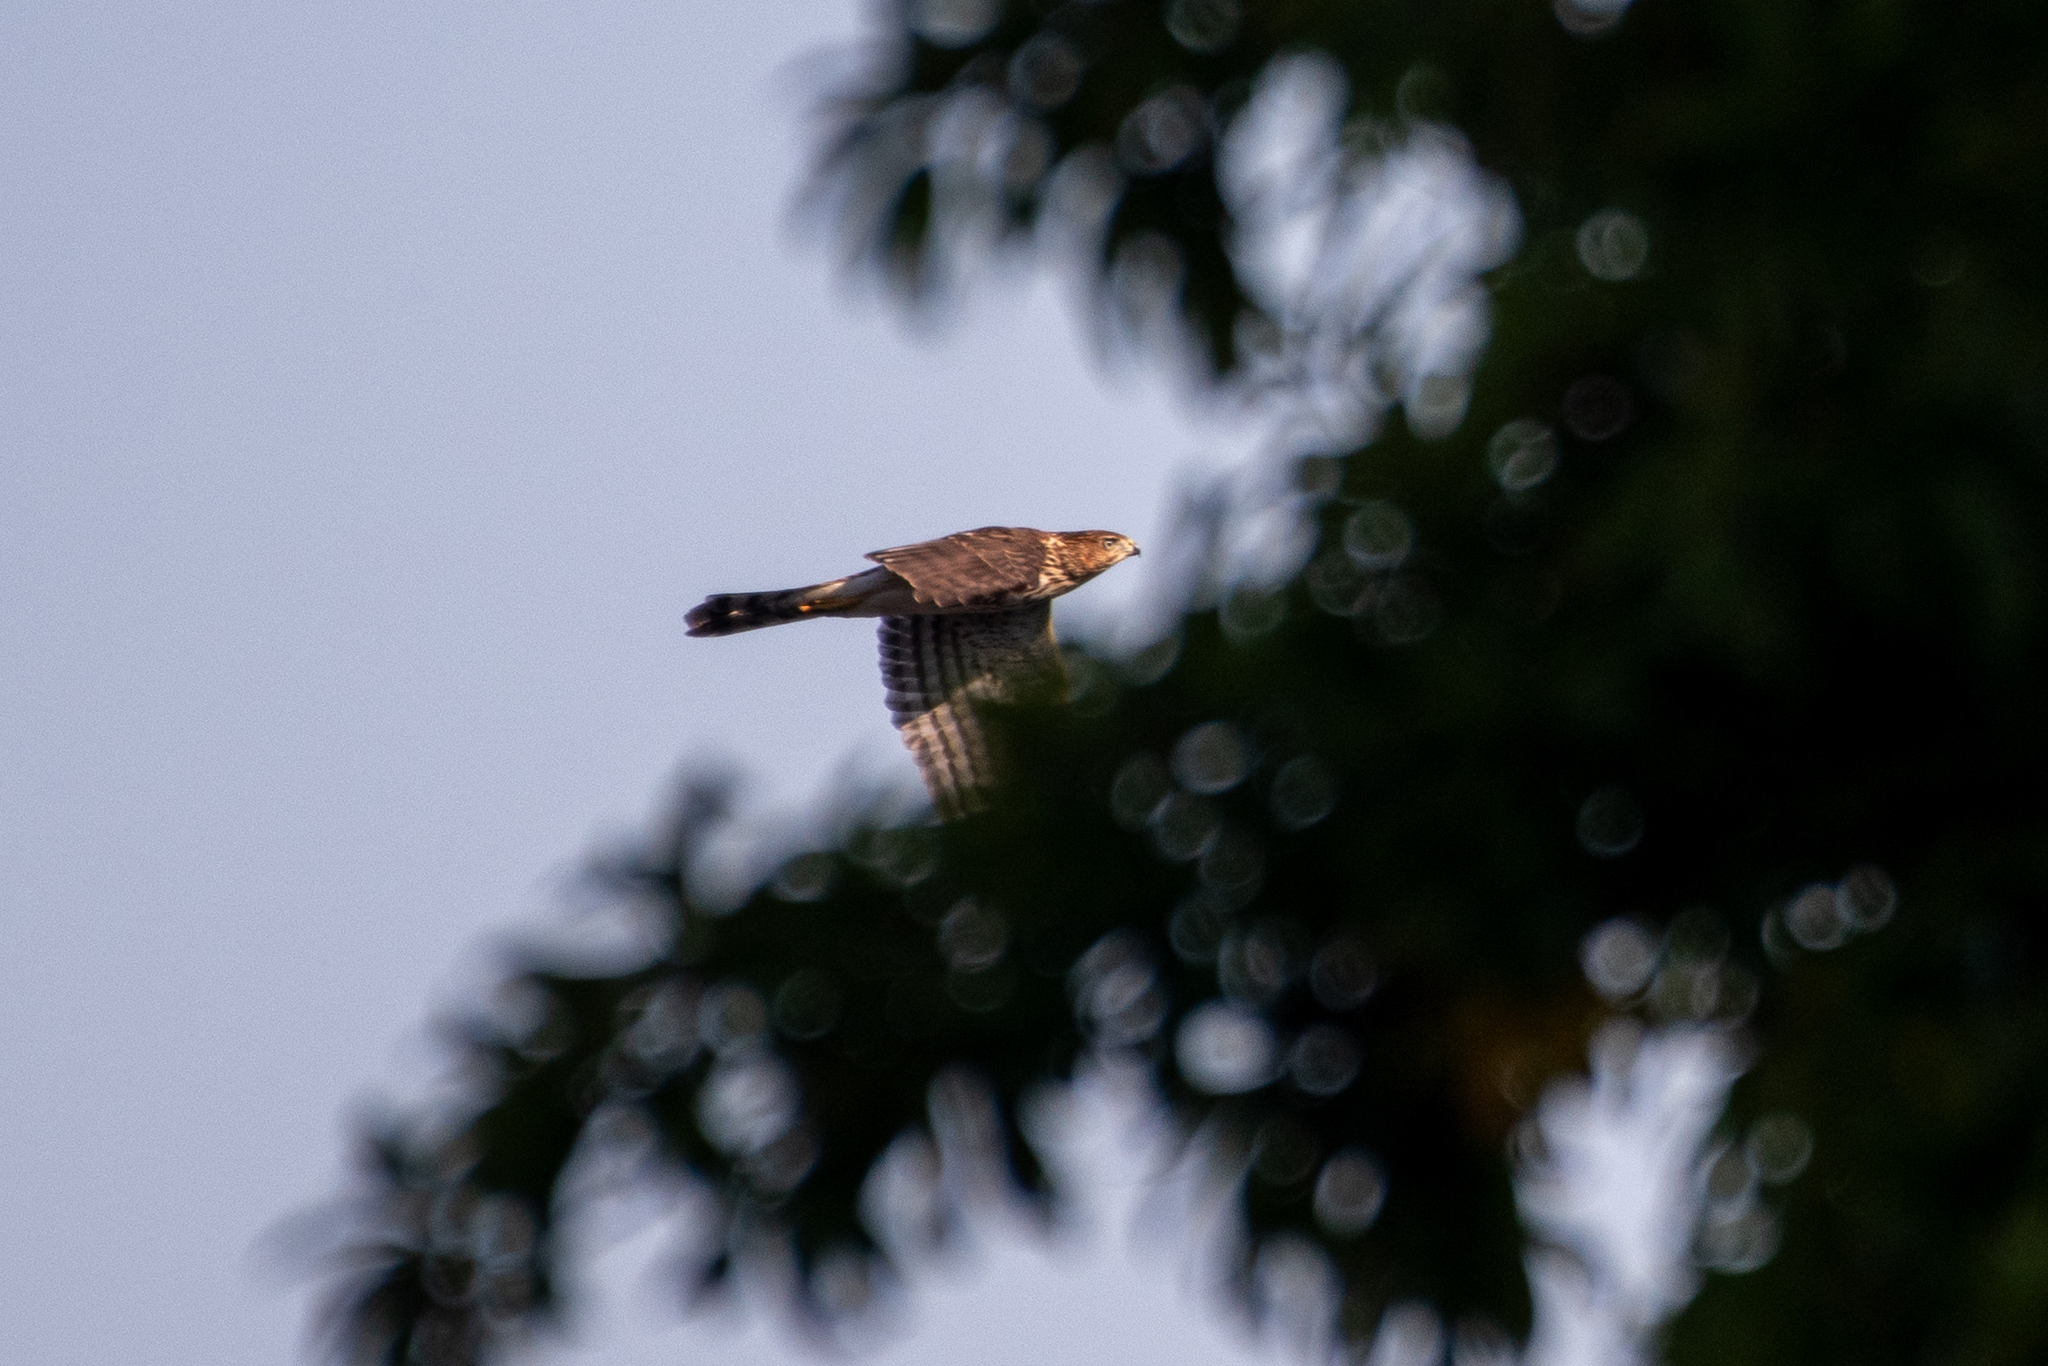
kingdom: Animalia
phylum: Chordata
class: Aves
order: Accipitriformes
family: Accipitridae
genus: Accipiter
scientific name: Accipiter cooperii
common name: Cooper's hawk
